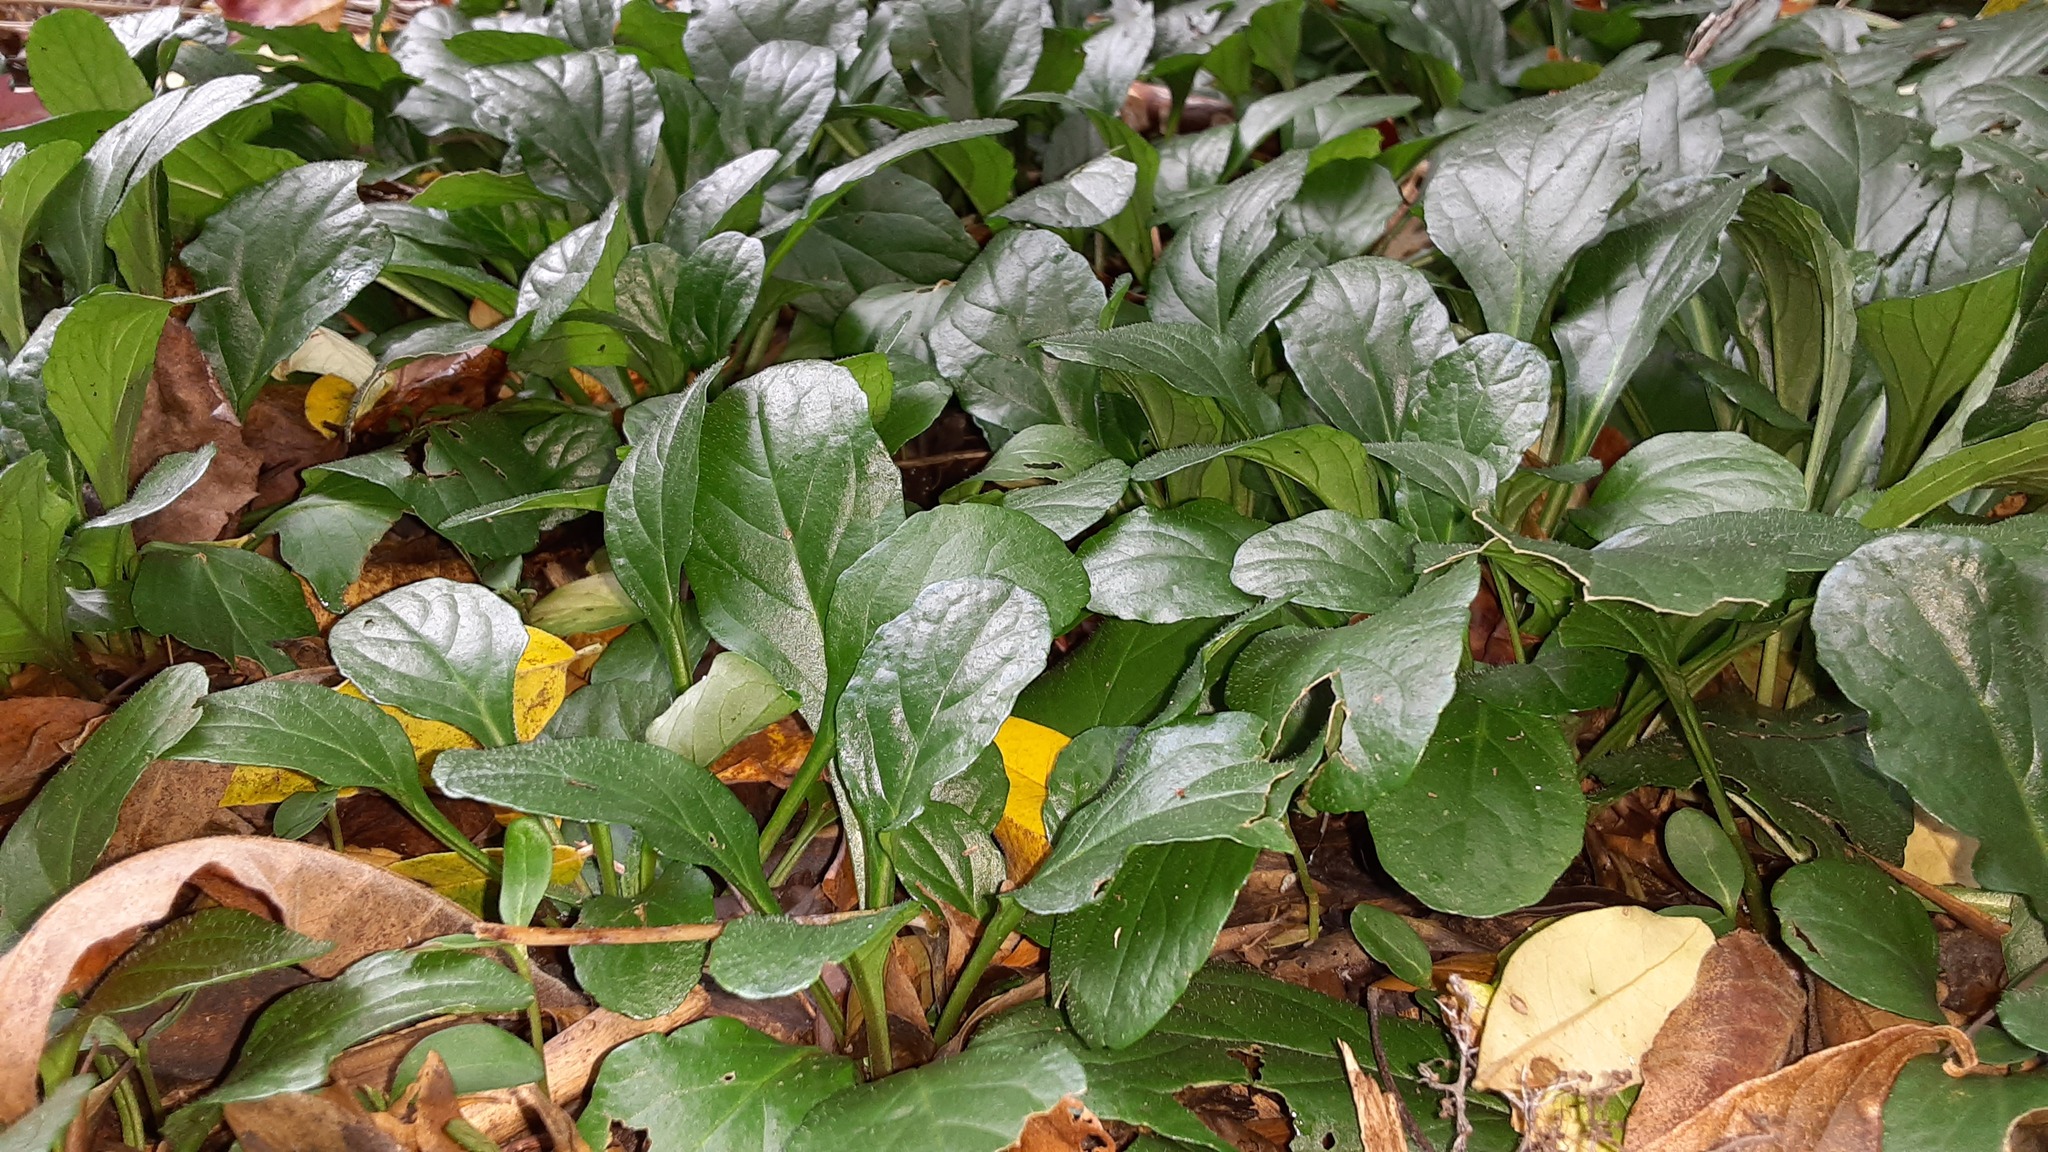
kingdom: Plantae
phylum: Tracheophyta
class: Magnoliopsida
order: Lamiales
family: Lamiaceae
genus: Ajuga
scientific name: Ajuga reptans
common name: Bugle
